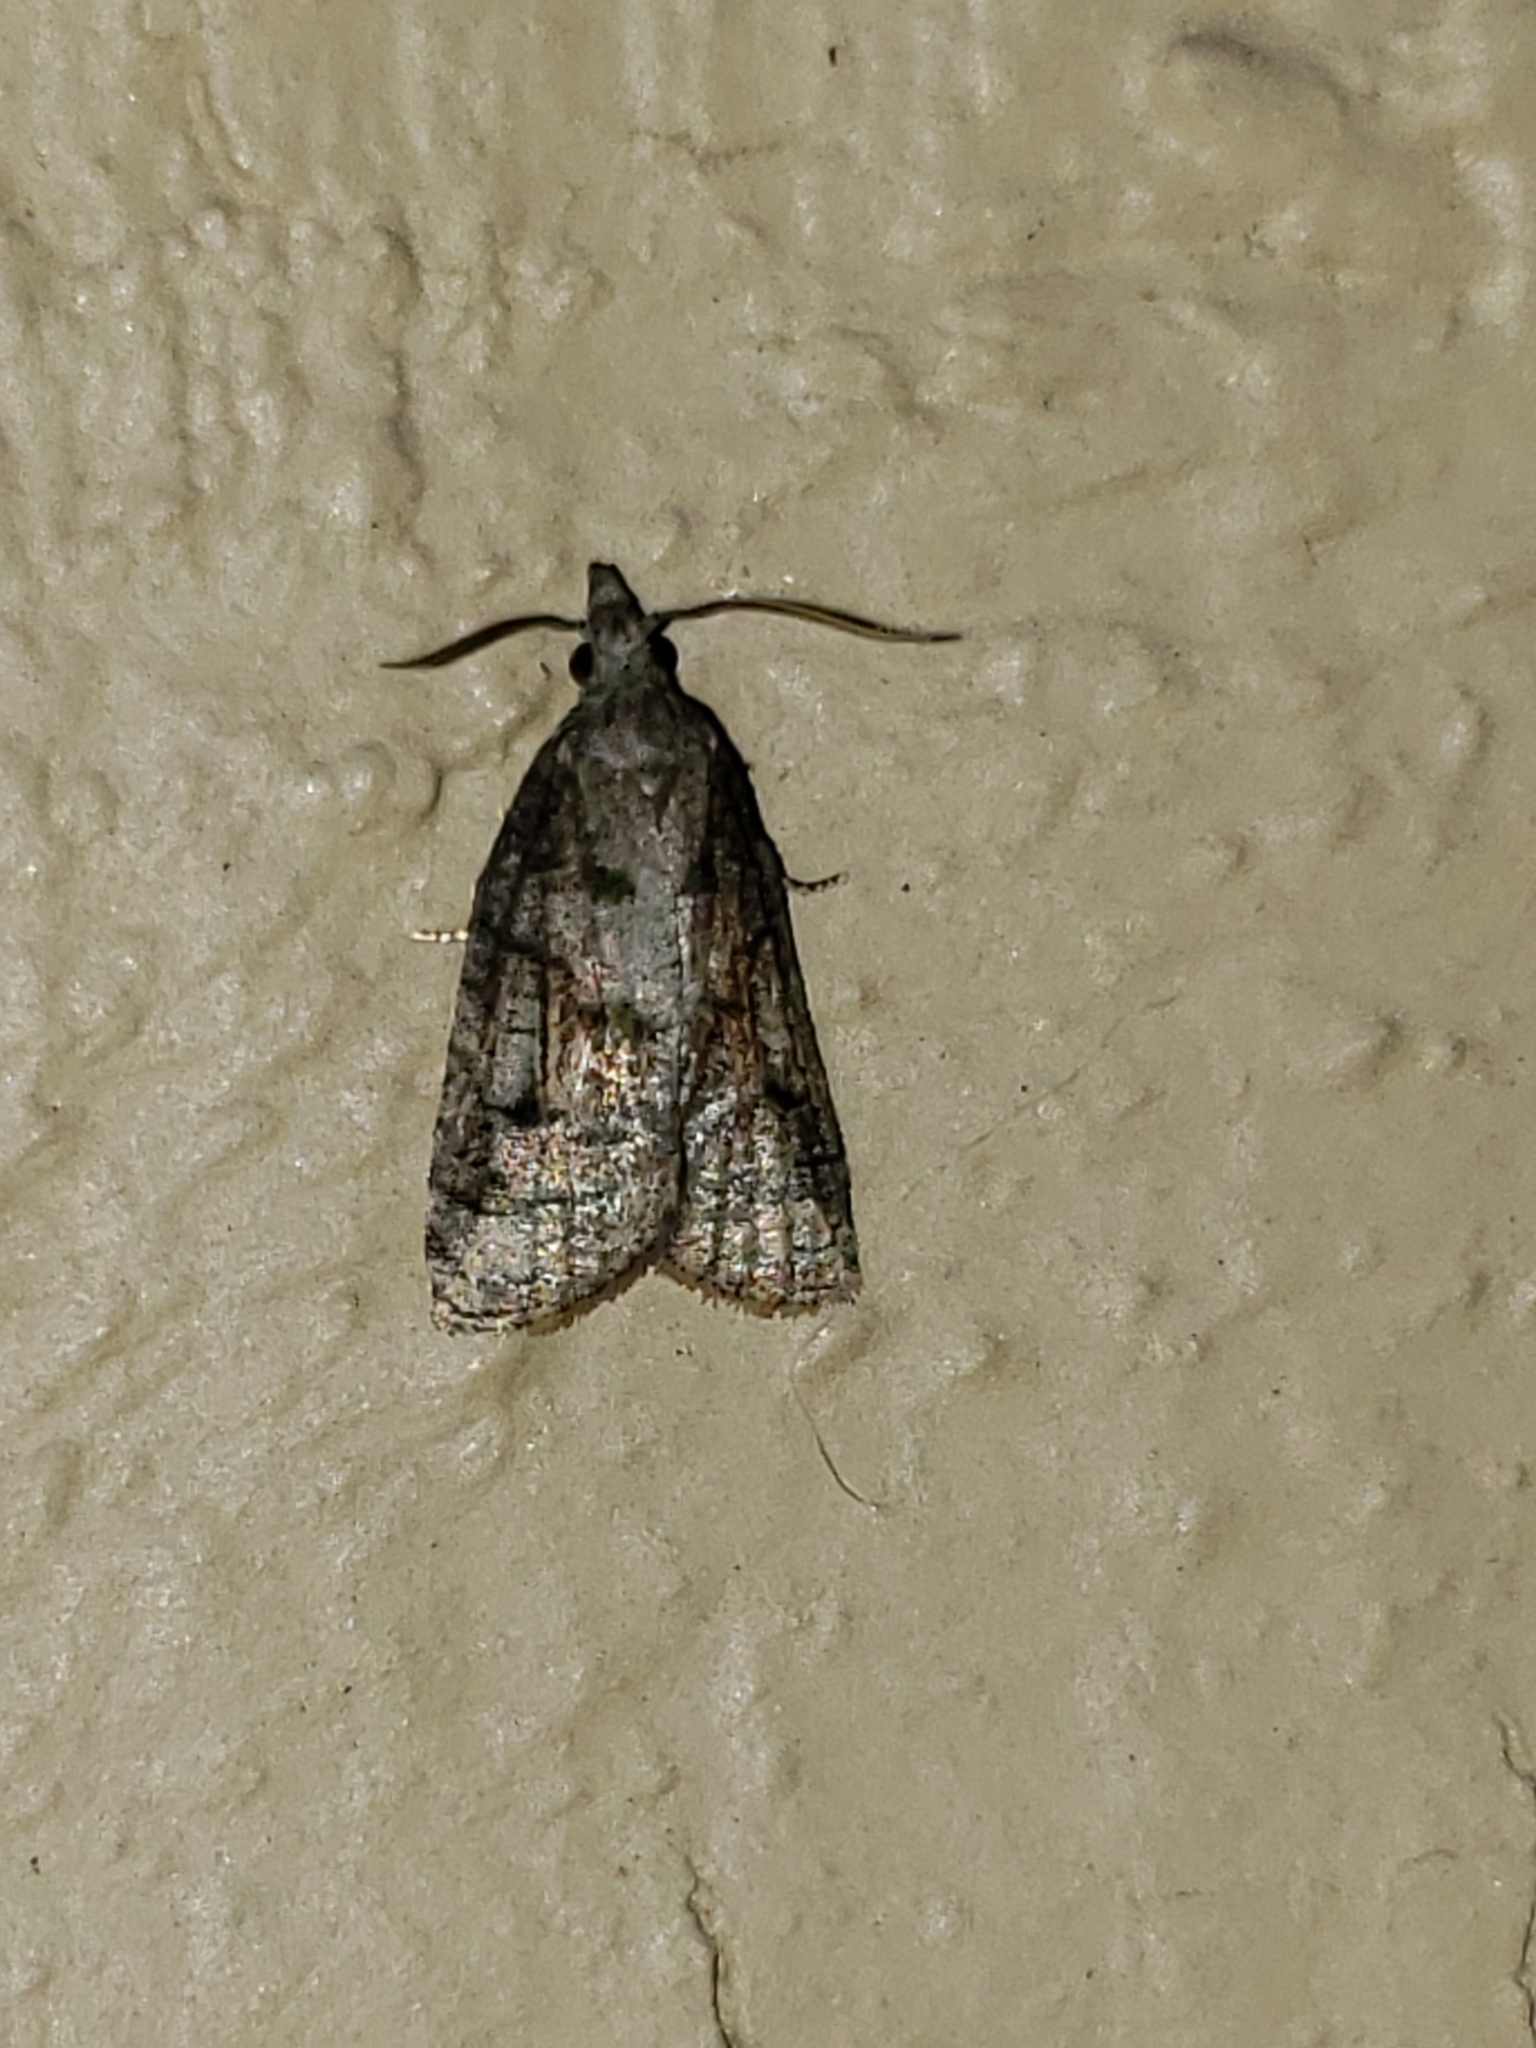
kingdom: Animalia
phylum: Arthropoda
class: Insecta
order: Lepidoptera
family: Tortricidae
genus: Platynota
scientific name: Platynota idaeusalis
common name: Tufted apple bud moth
